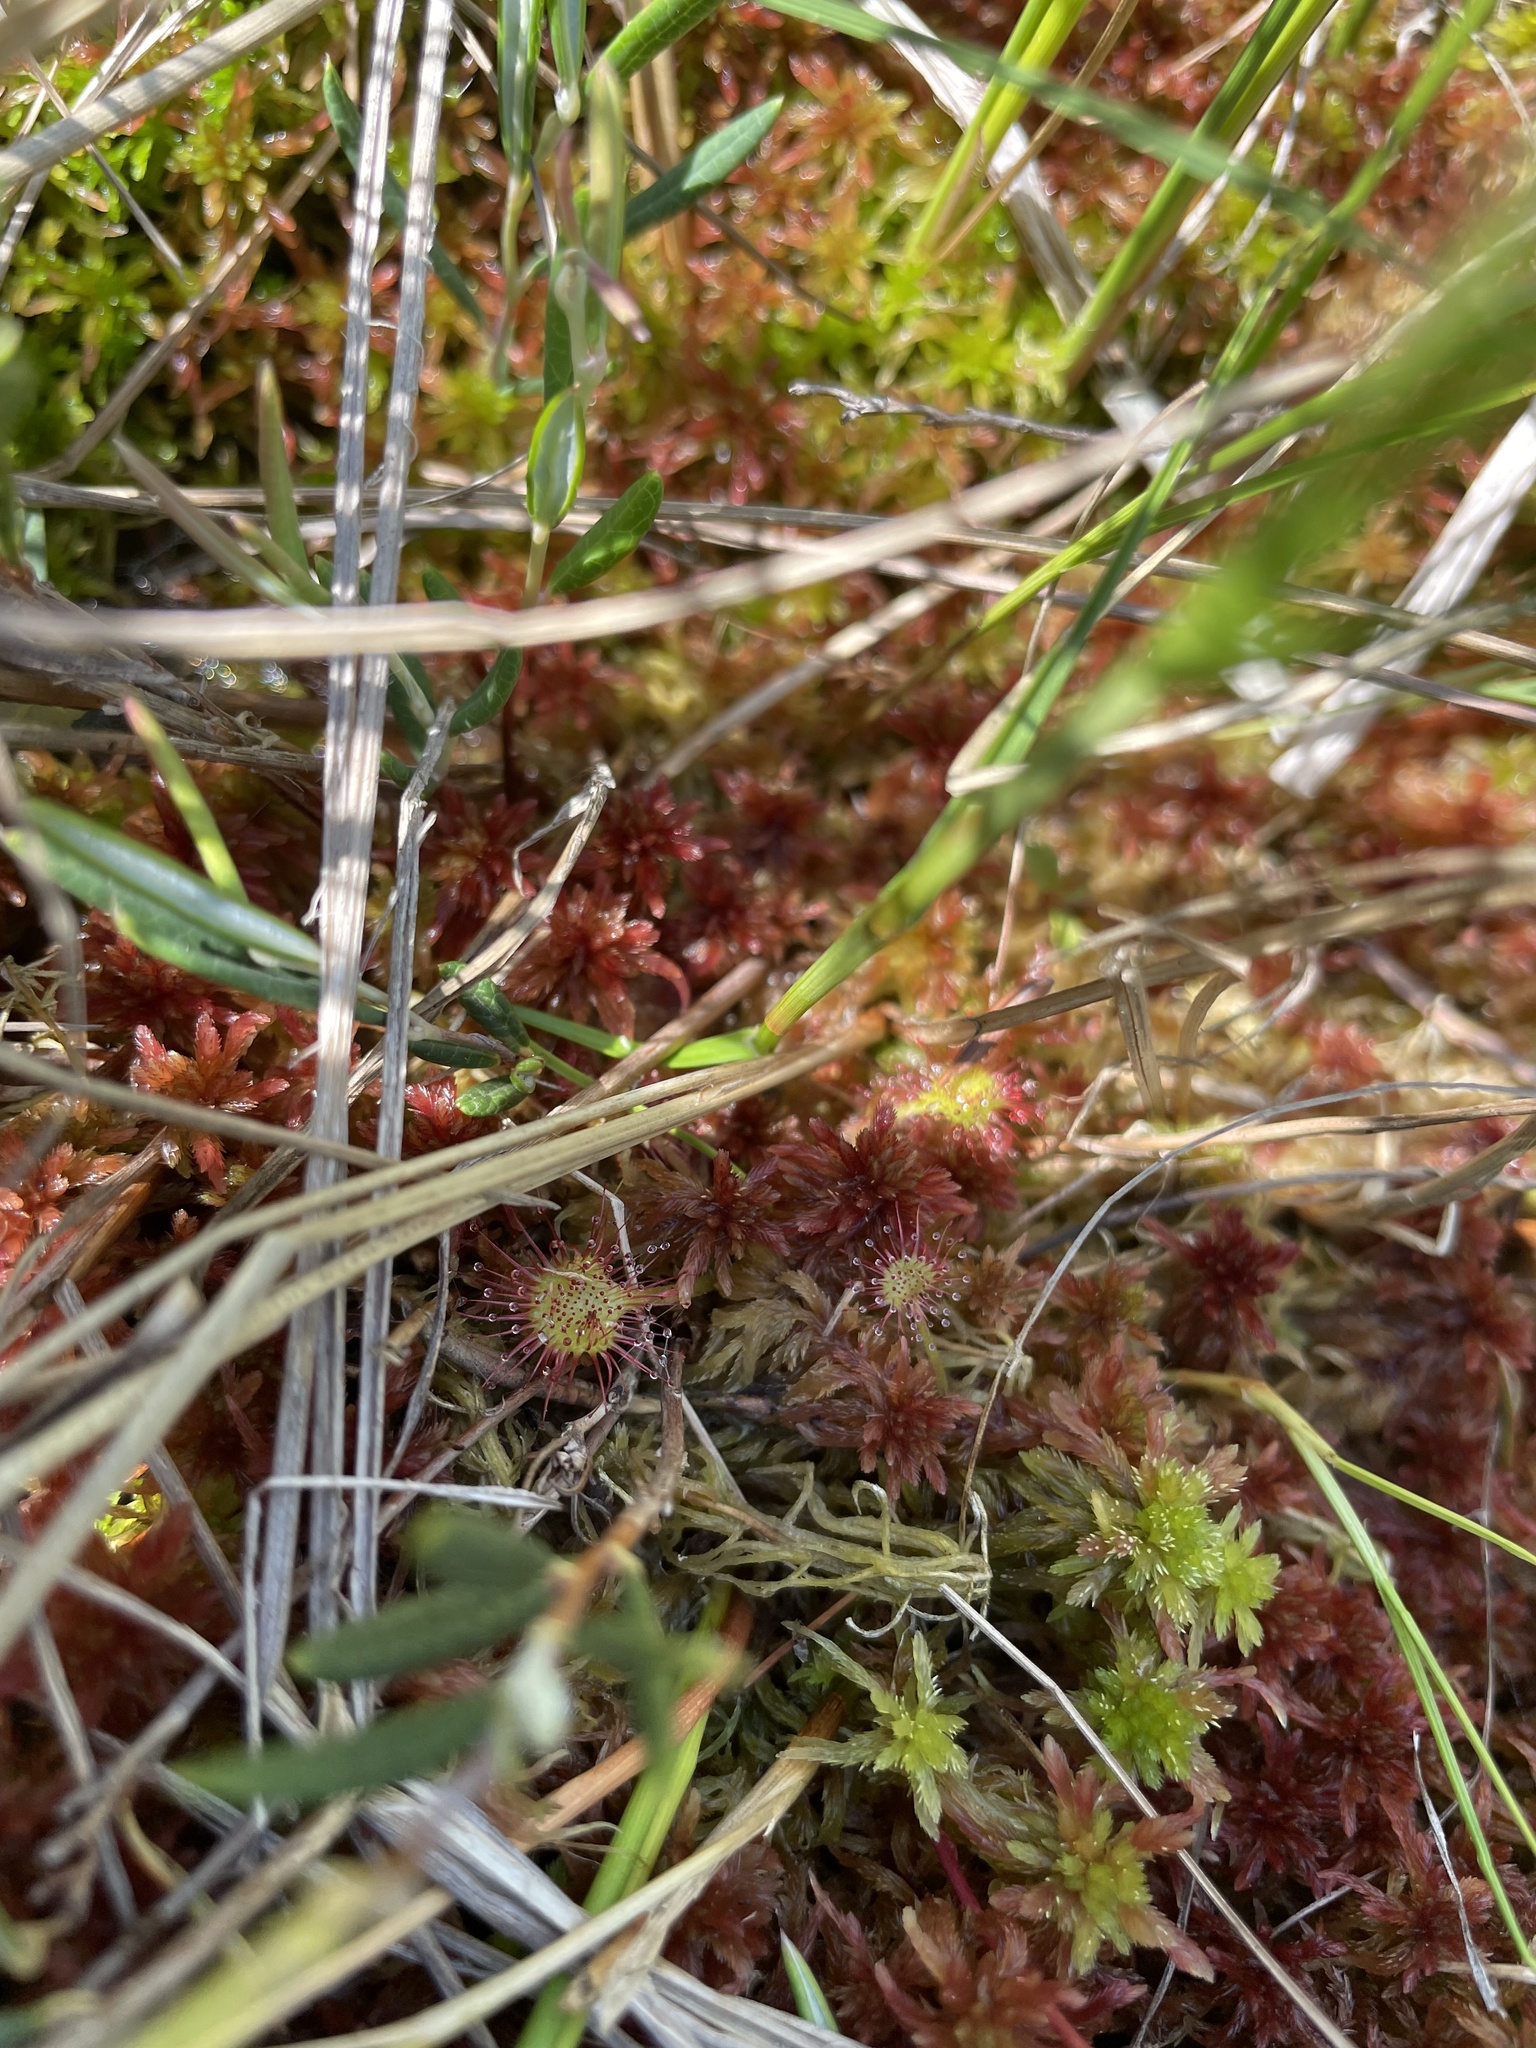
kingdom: Plantae
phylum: Tracheophyta
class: Magnoliopsida
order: Caryophyllales
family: Droseraceae
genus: Drosera
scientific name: Drosera rotundifolia
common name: Round-leaved sundew
